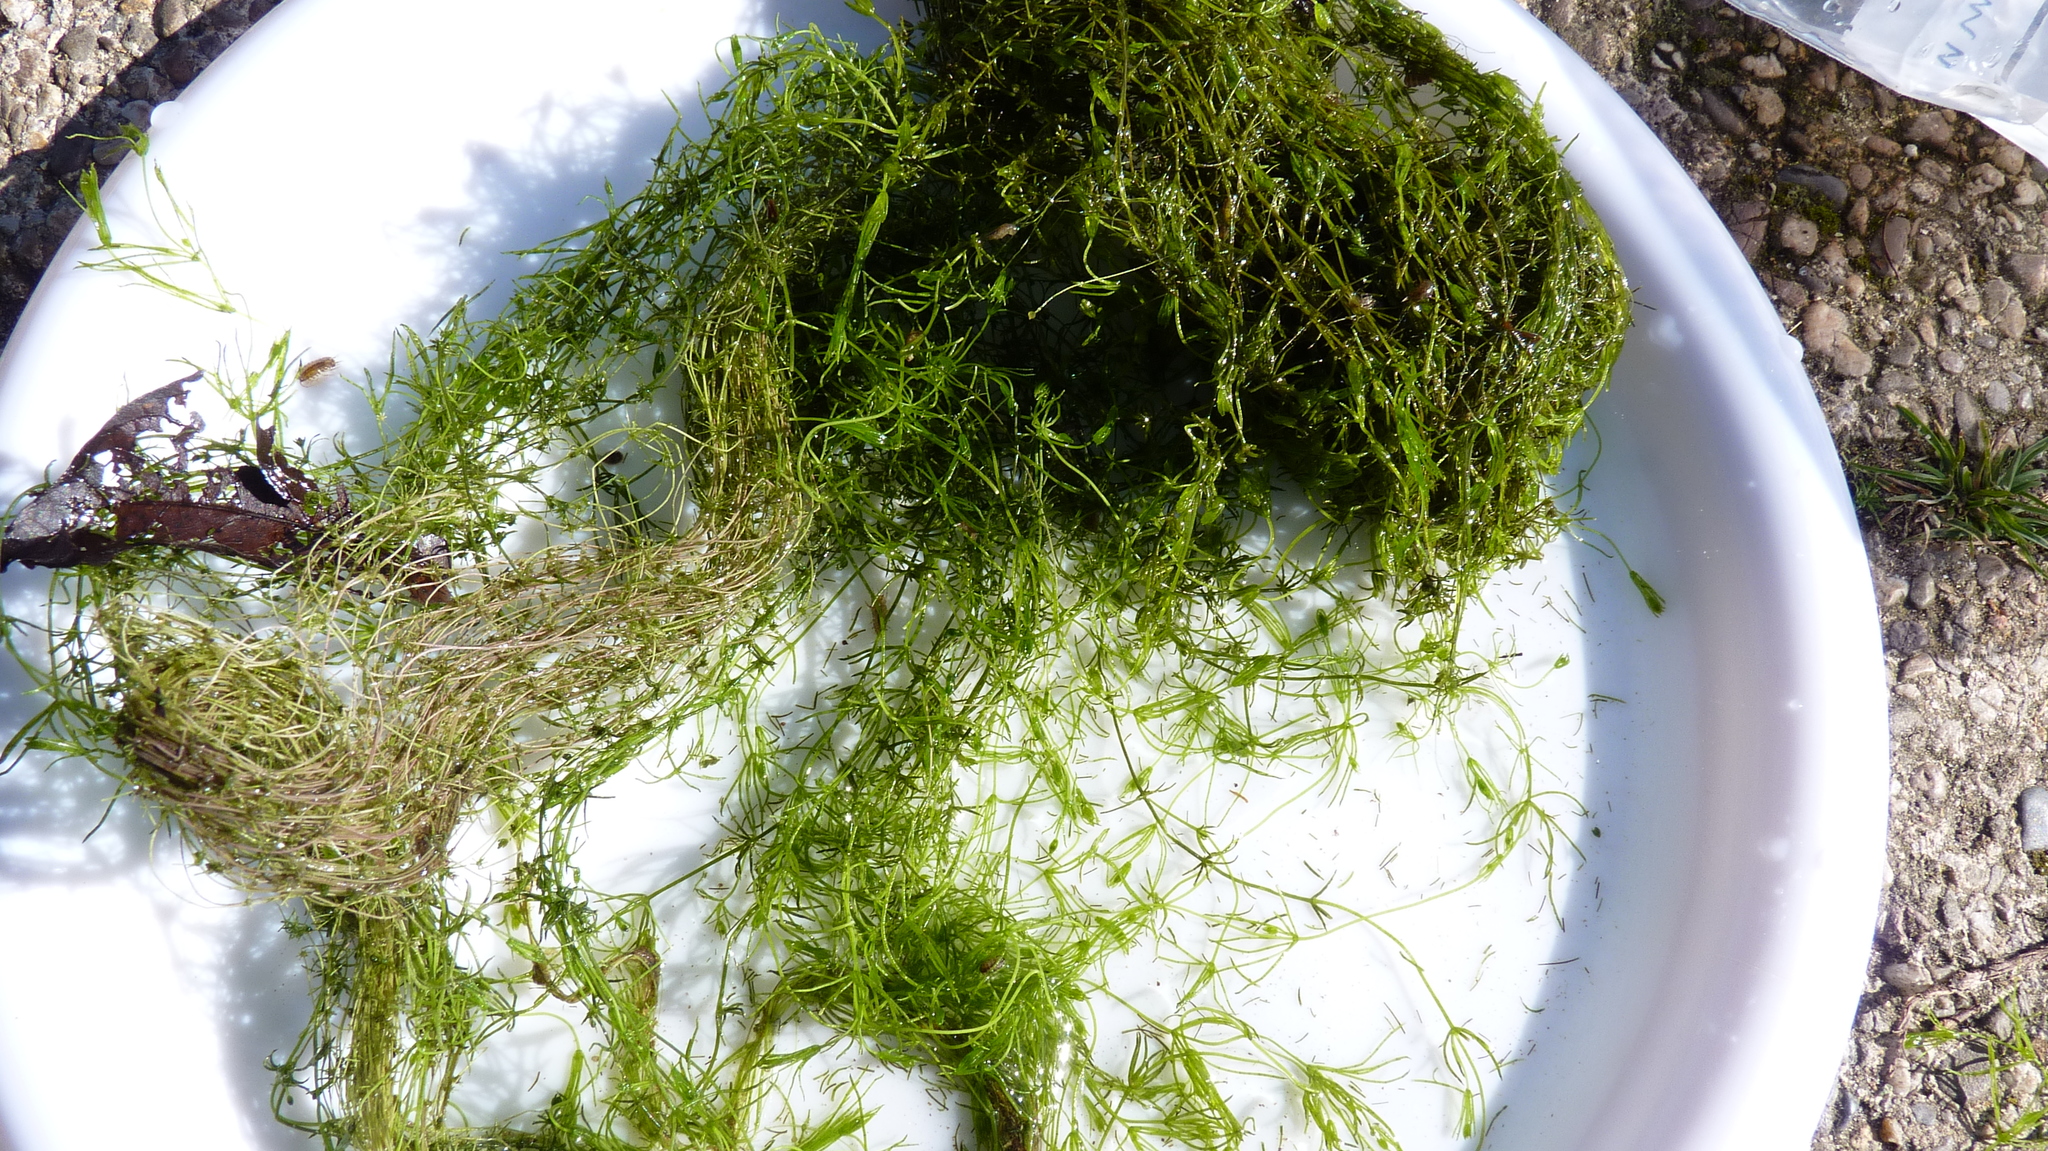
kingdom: Plantae
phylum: Charophyta
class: Charophyceae
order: Charales
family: Characeae
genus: Chara
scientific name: Chara
